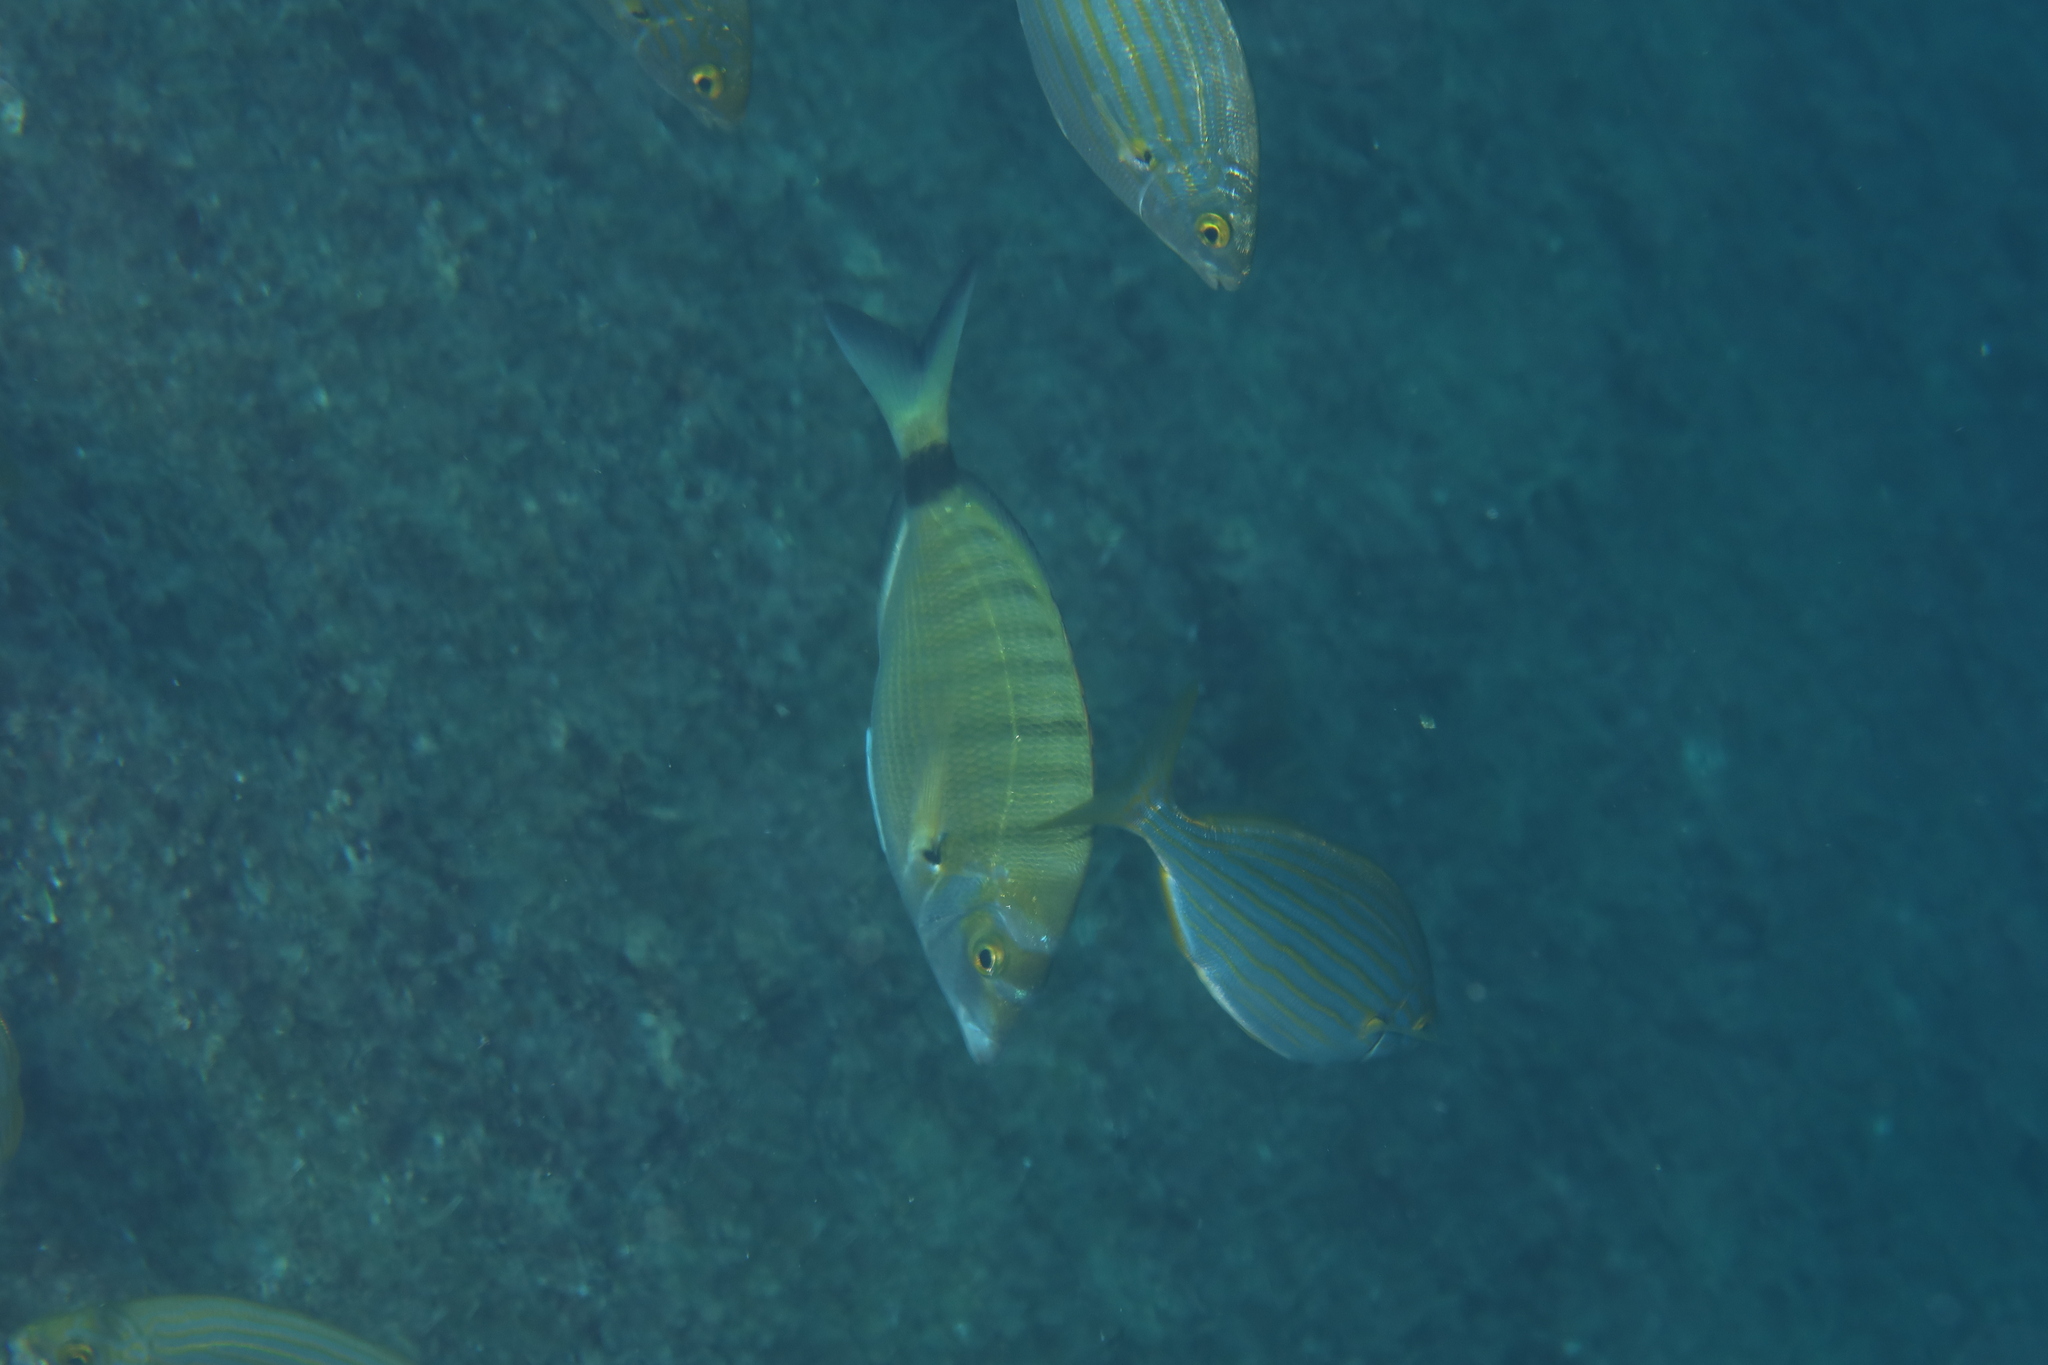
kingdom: Animalia
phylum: Chordata
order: Perciformes
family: Sparidae
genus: Diplodus
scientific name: Diplodus puntazzo
